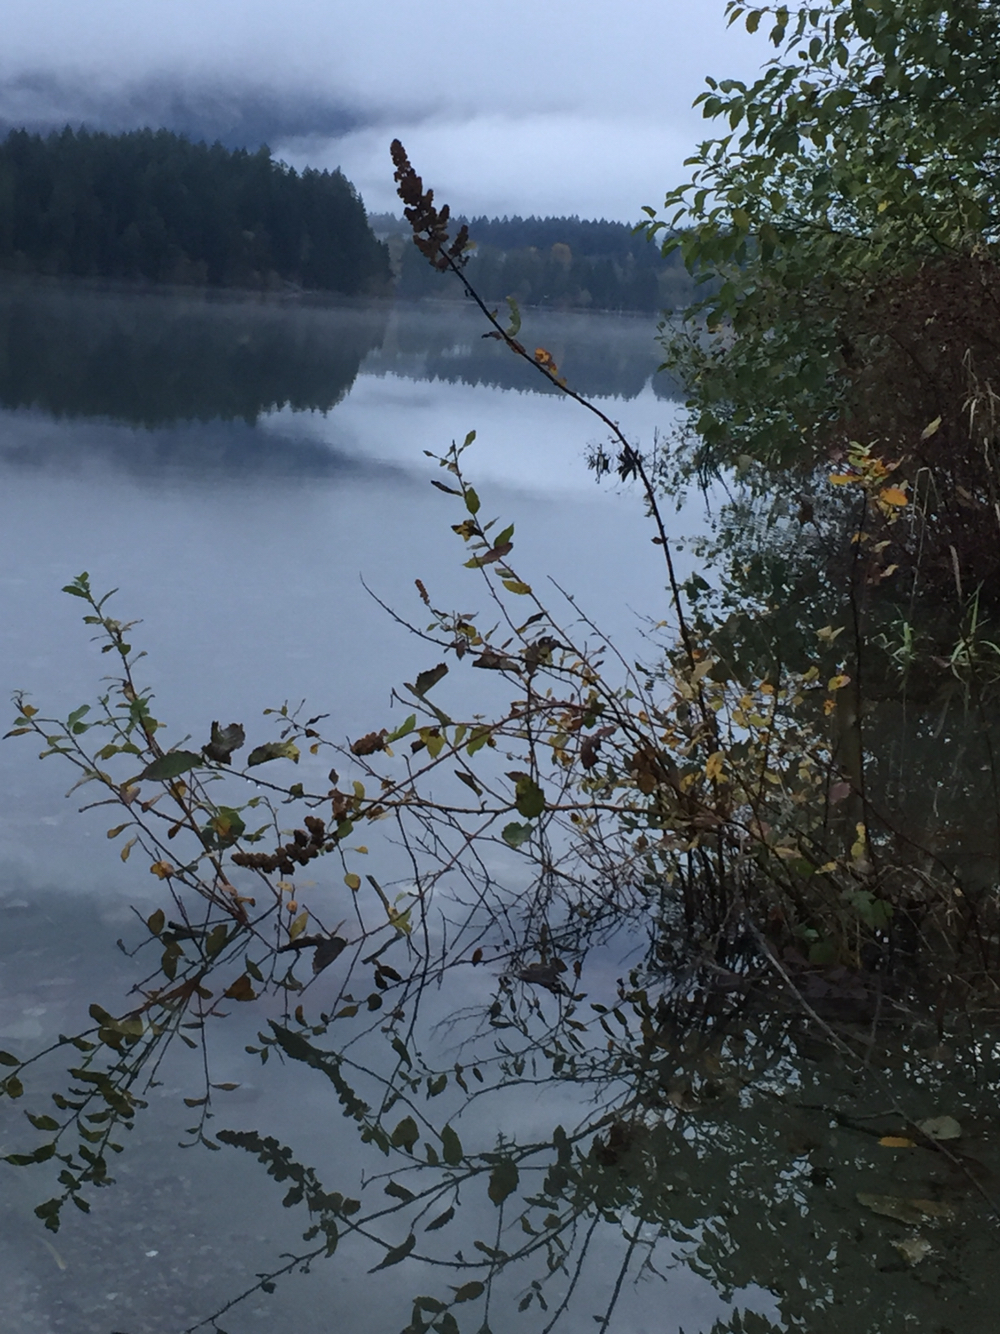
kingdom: Plantae
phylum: Tracheophyta
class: Magnoliopsida
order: Rosales
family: Rosaceae
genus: Spiraea
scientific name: Spiraea douglasii
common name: Steeplebush
